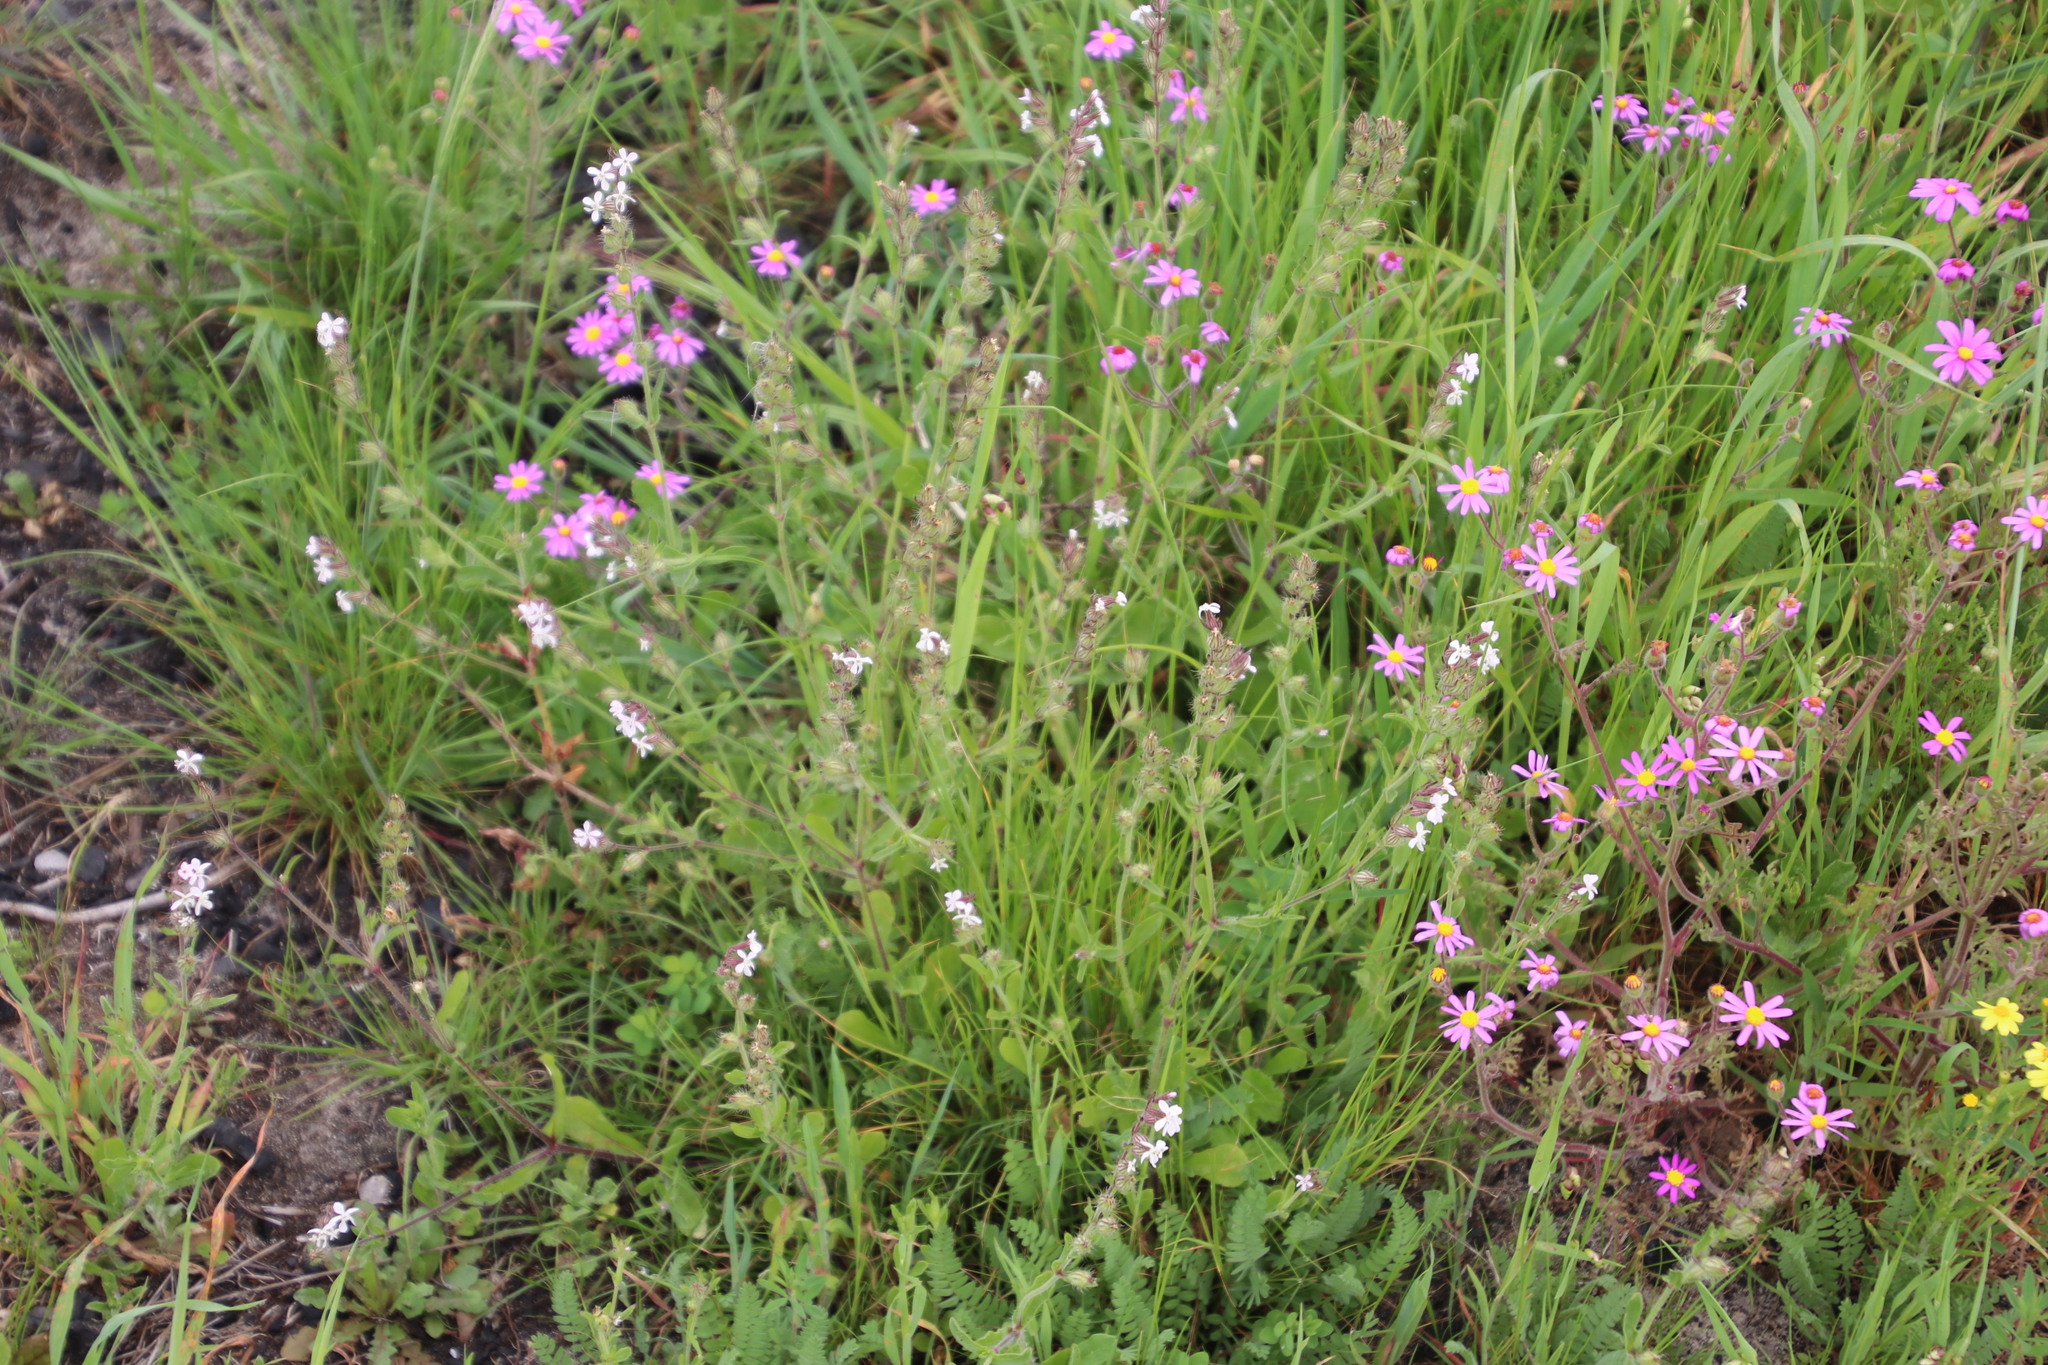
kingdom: Plantae
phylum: Tracheophyta
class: Magnoliopsida
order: Caryophyllales
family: Caryophyllaceae
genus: Silene
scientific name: Silene gallica
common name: Small-flowered catchfly
